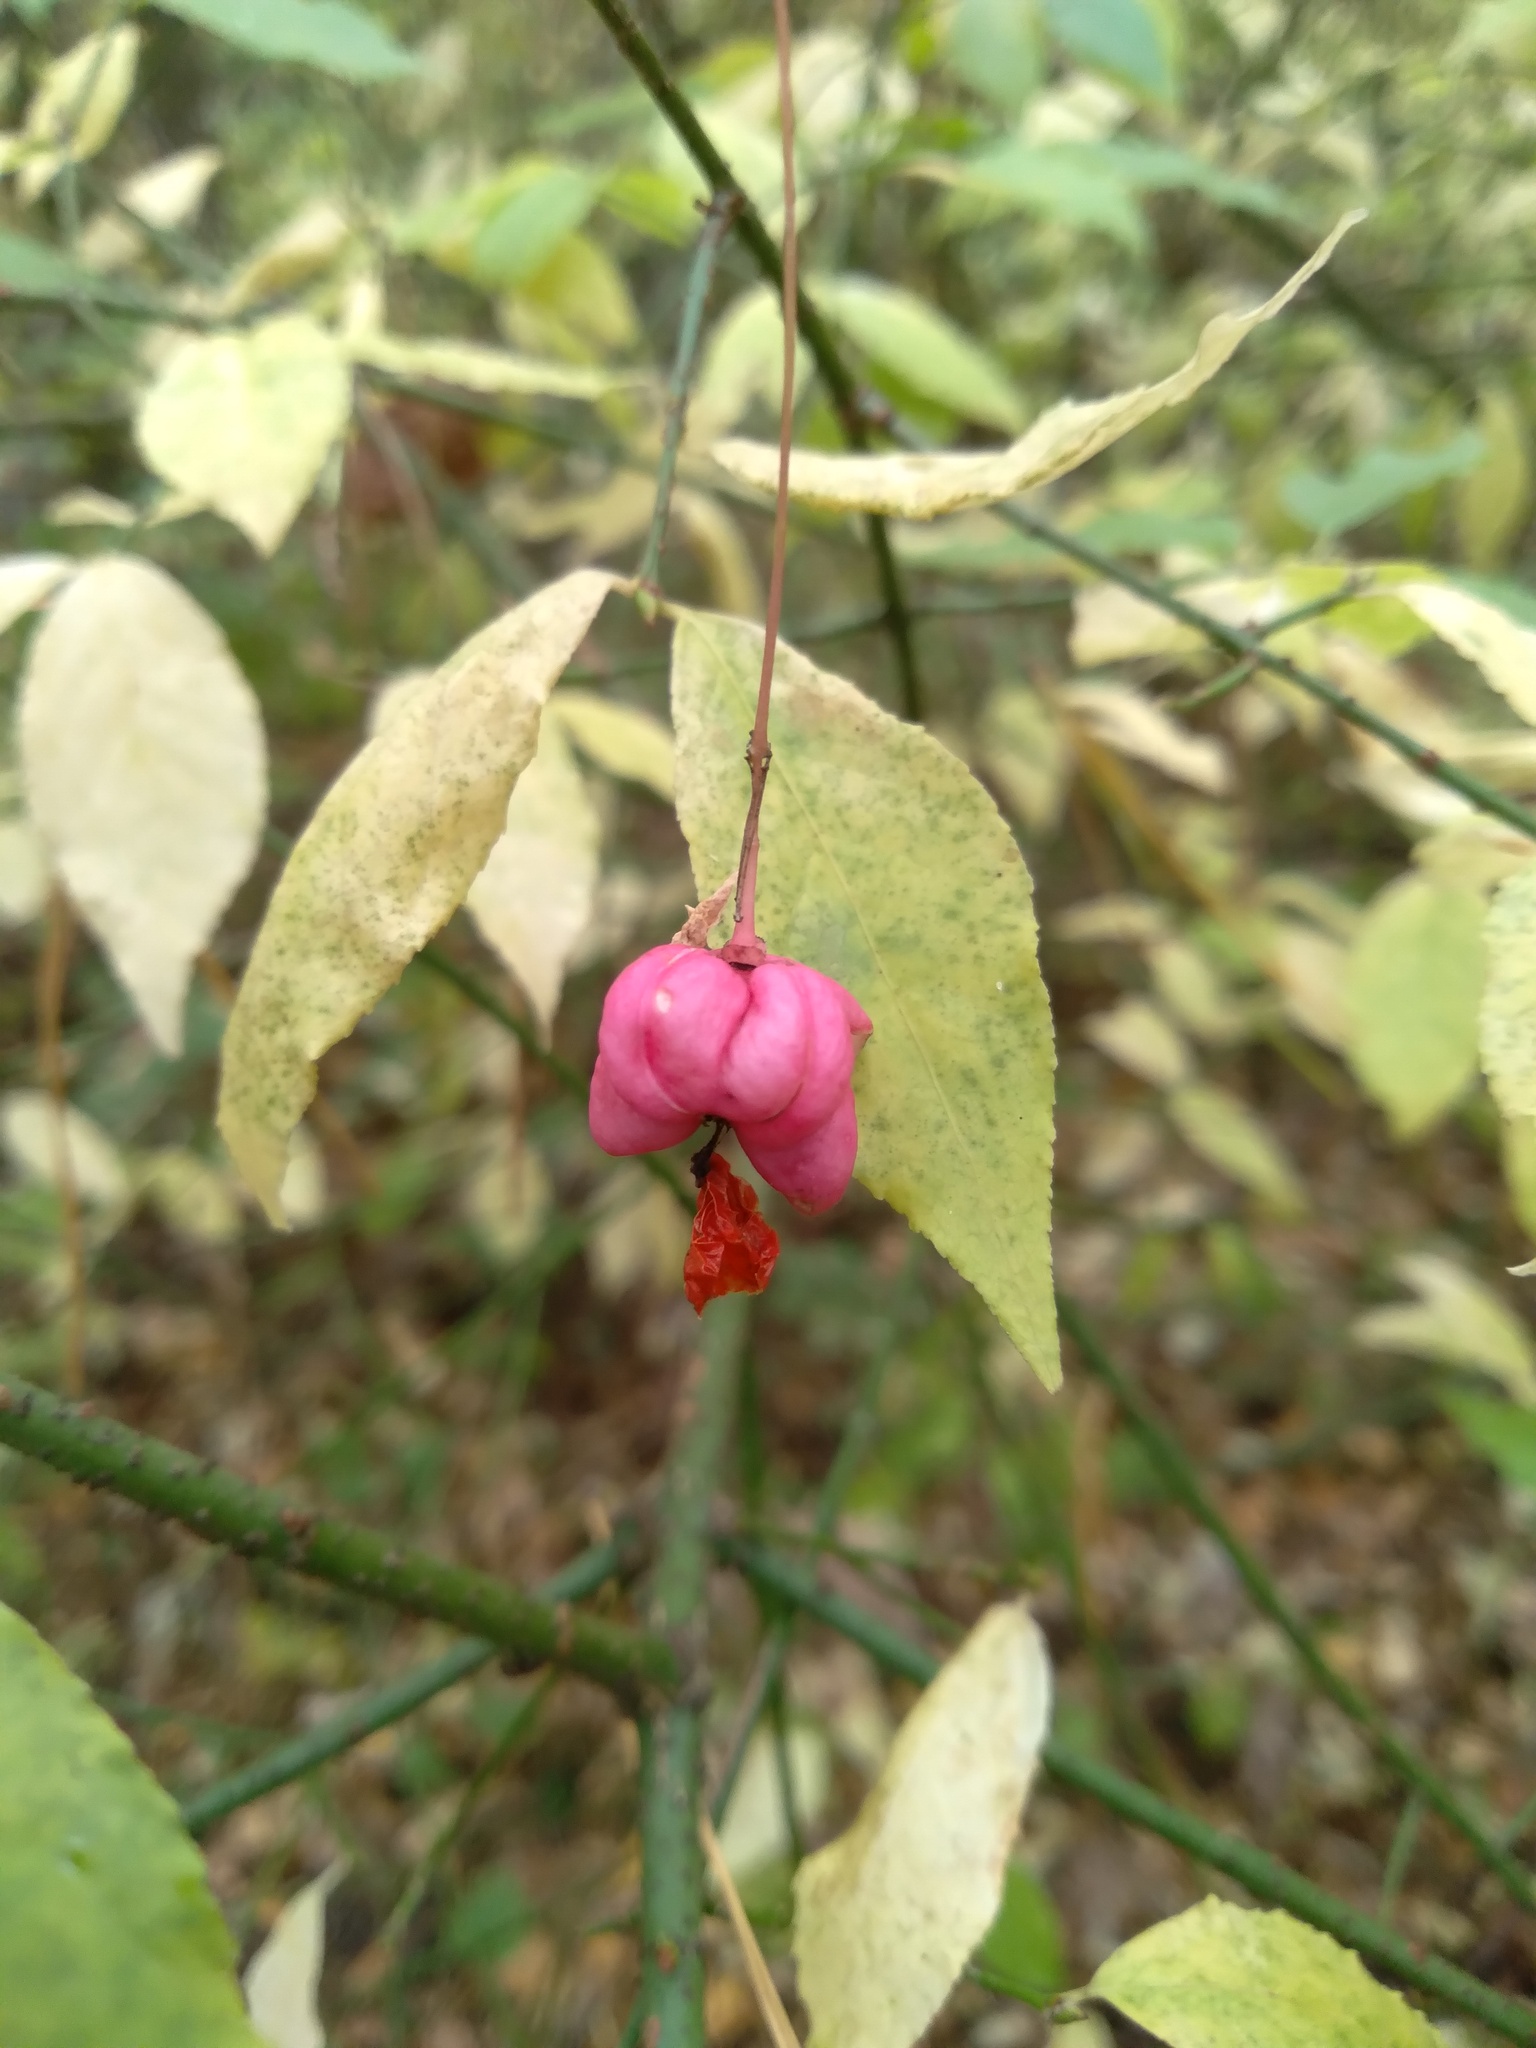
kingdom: Plantae
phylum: Tracheophyta
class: Magnoliopsida
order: Celastrales
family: Celastraceae
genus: Euonymus
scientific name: Euonymus verrucosus
